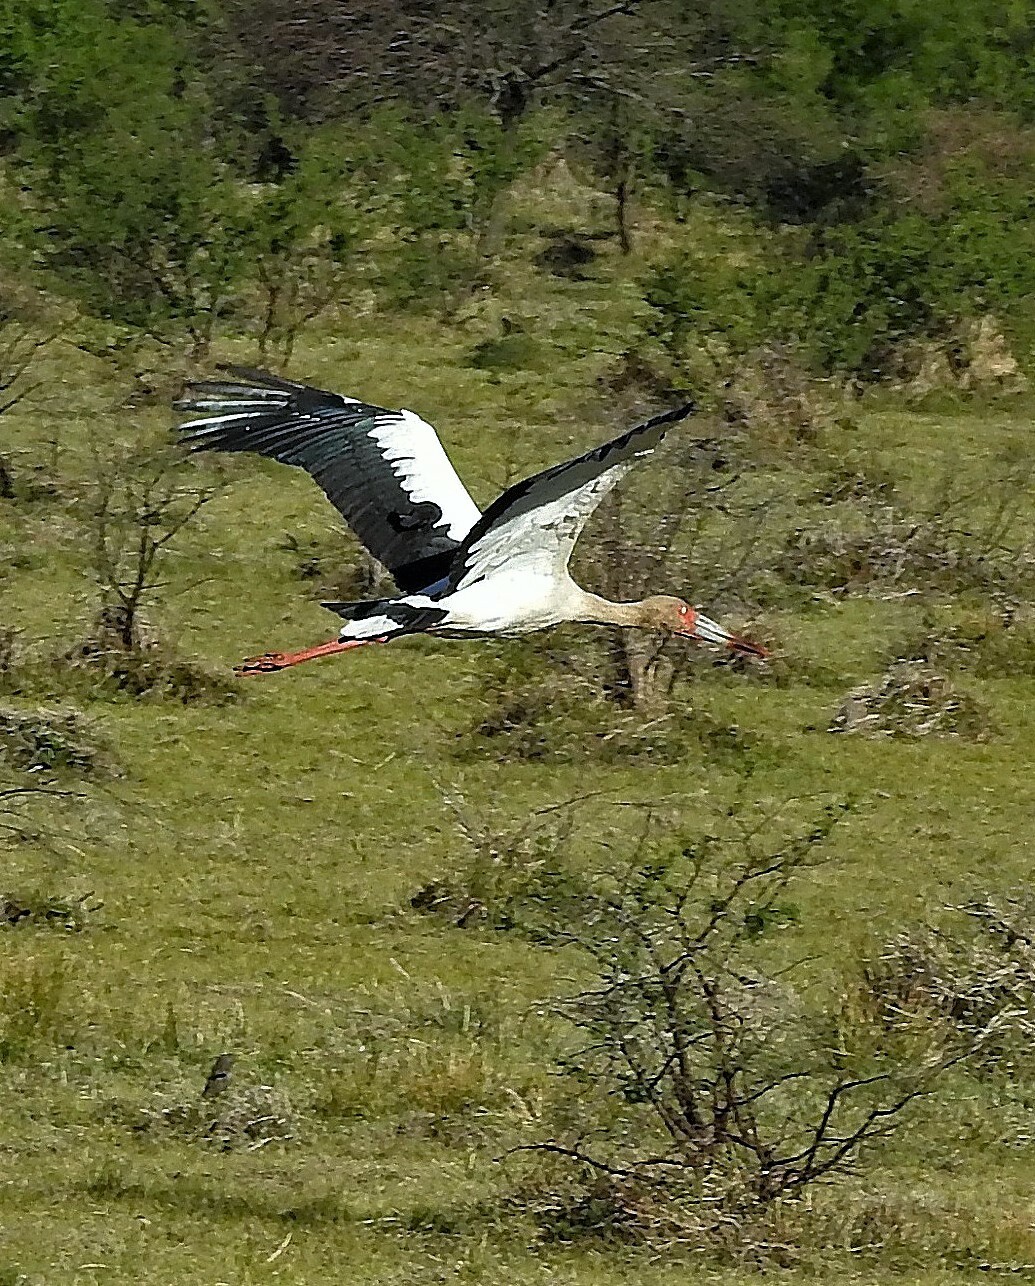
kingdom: Animalia
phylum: Chordata
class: Aves
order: Ciconiiformes
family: Ciconiidae
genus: Ciconia
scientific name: Ciconia maguari
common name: Maguari stork
